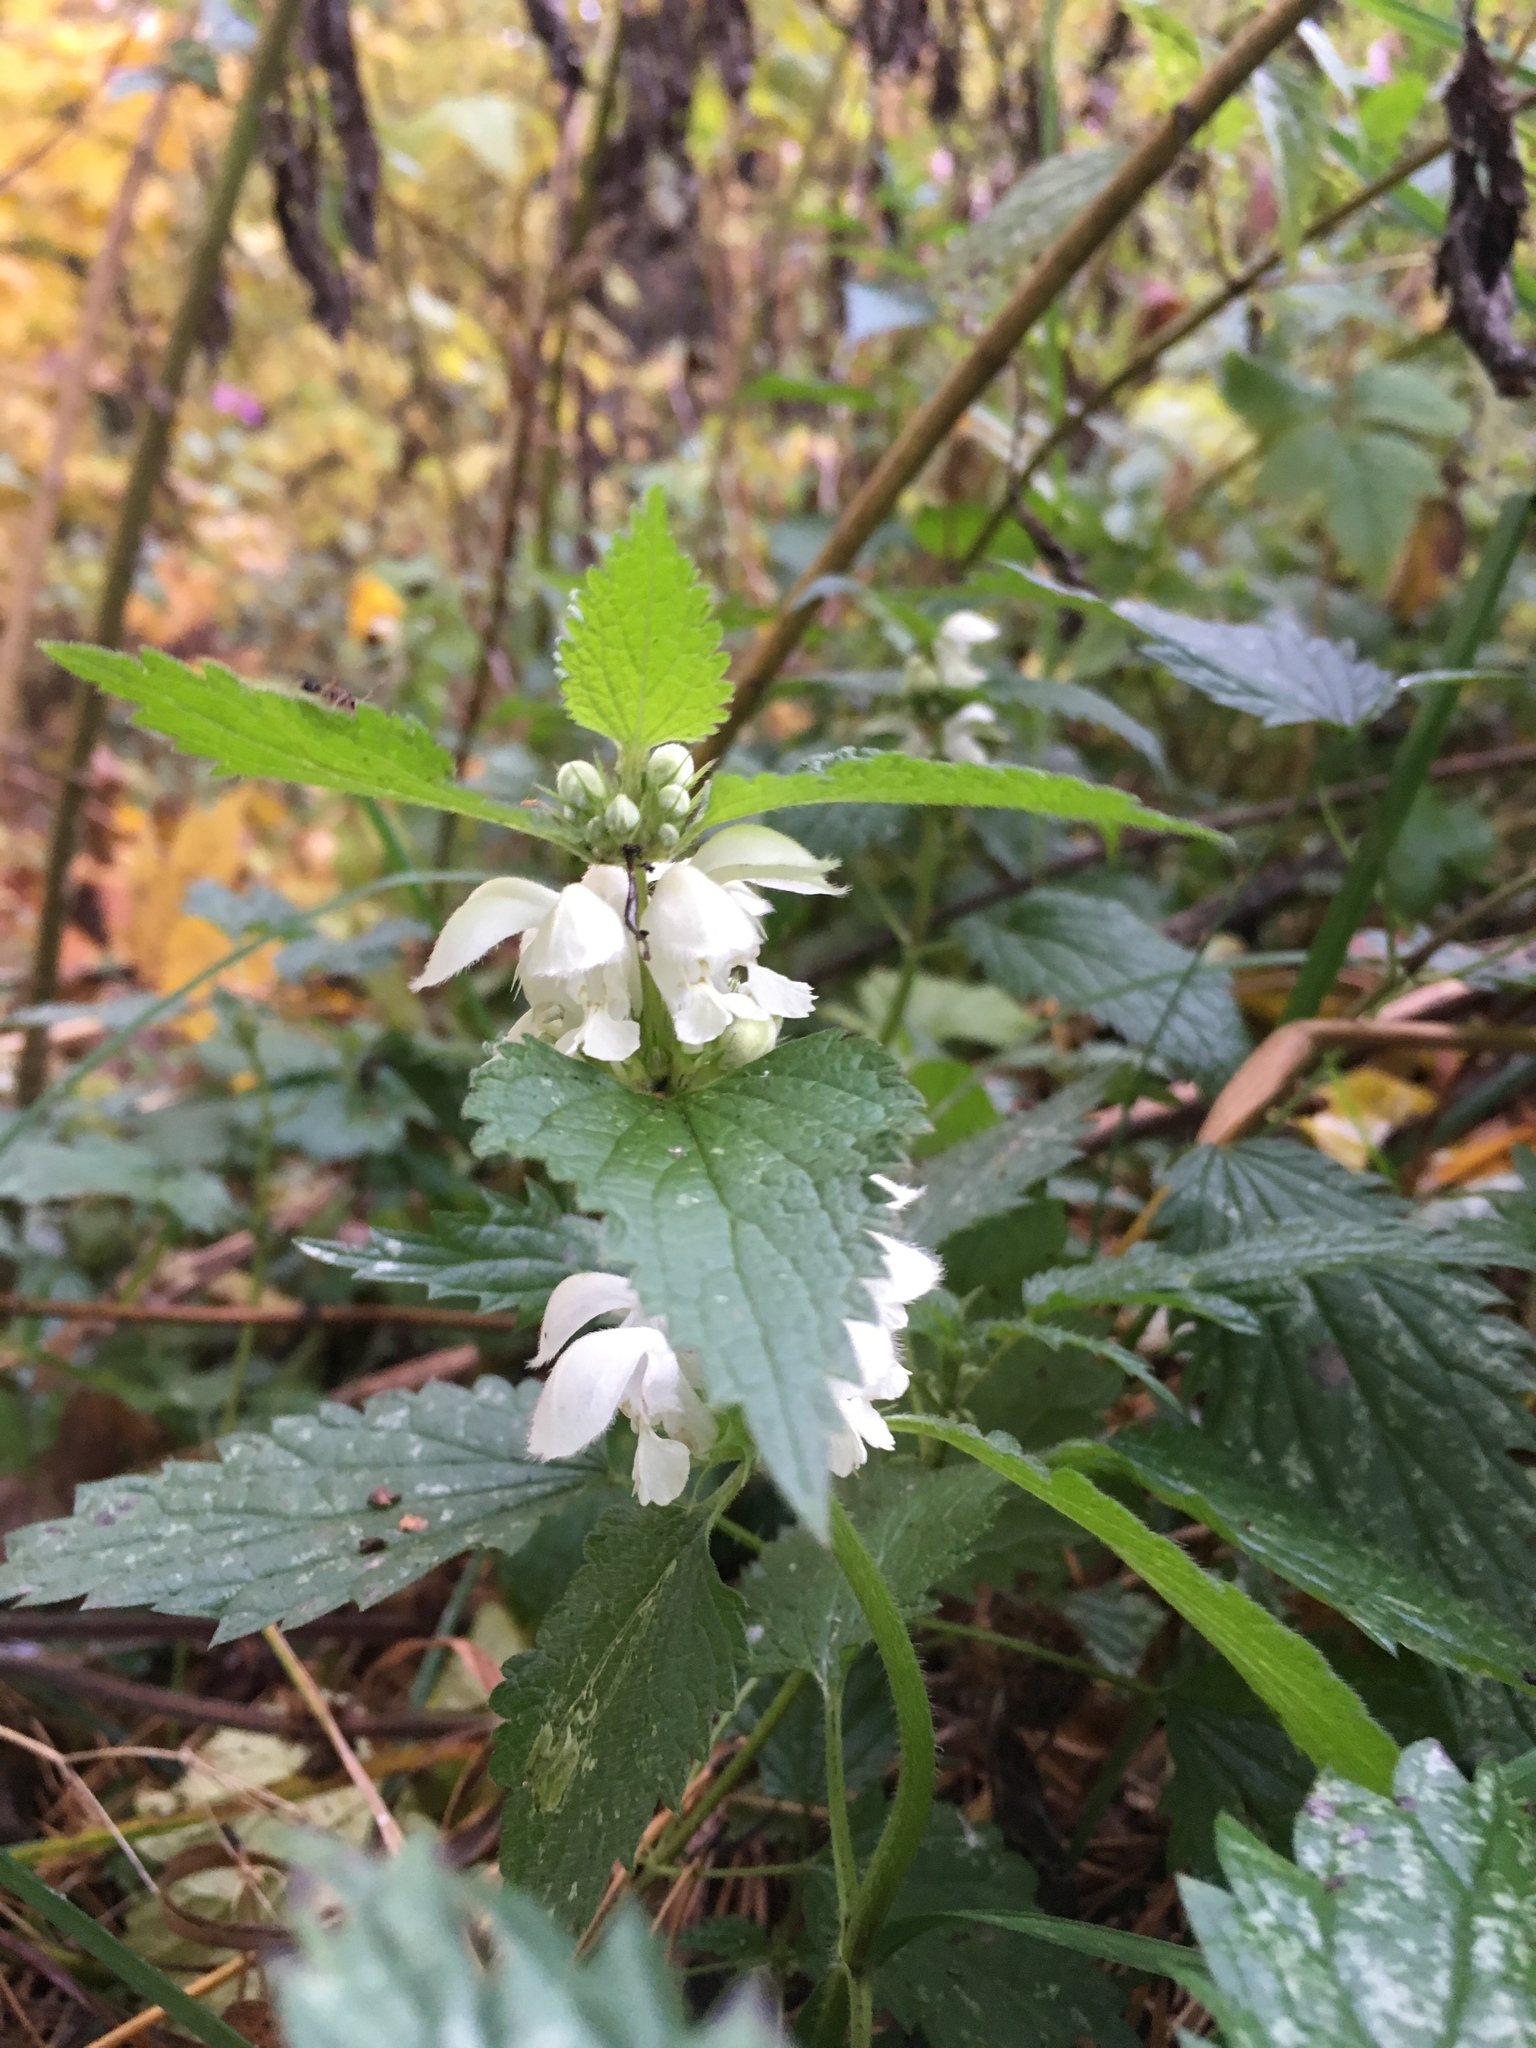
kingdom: Plantae
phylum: Tracheophyta
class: Magnoliopsida
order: Lamiales
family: Lamiaceae
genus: Lamium
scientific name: Lamium album
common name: White dead-nettle
